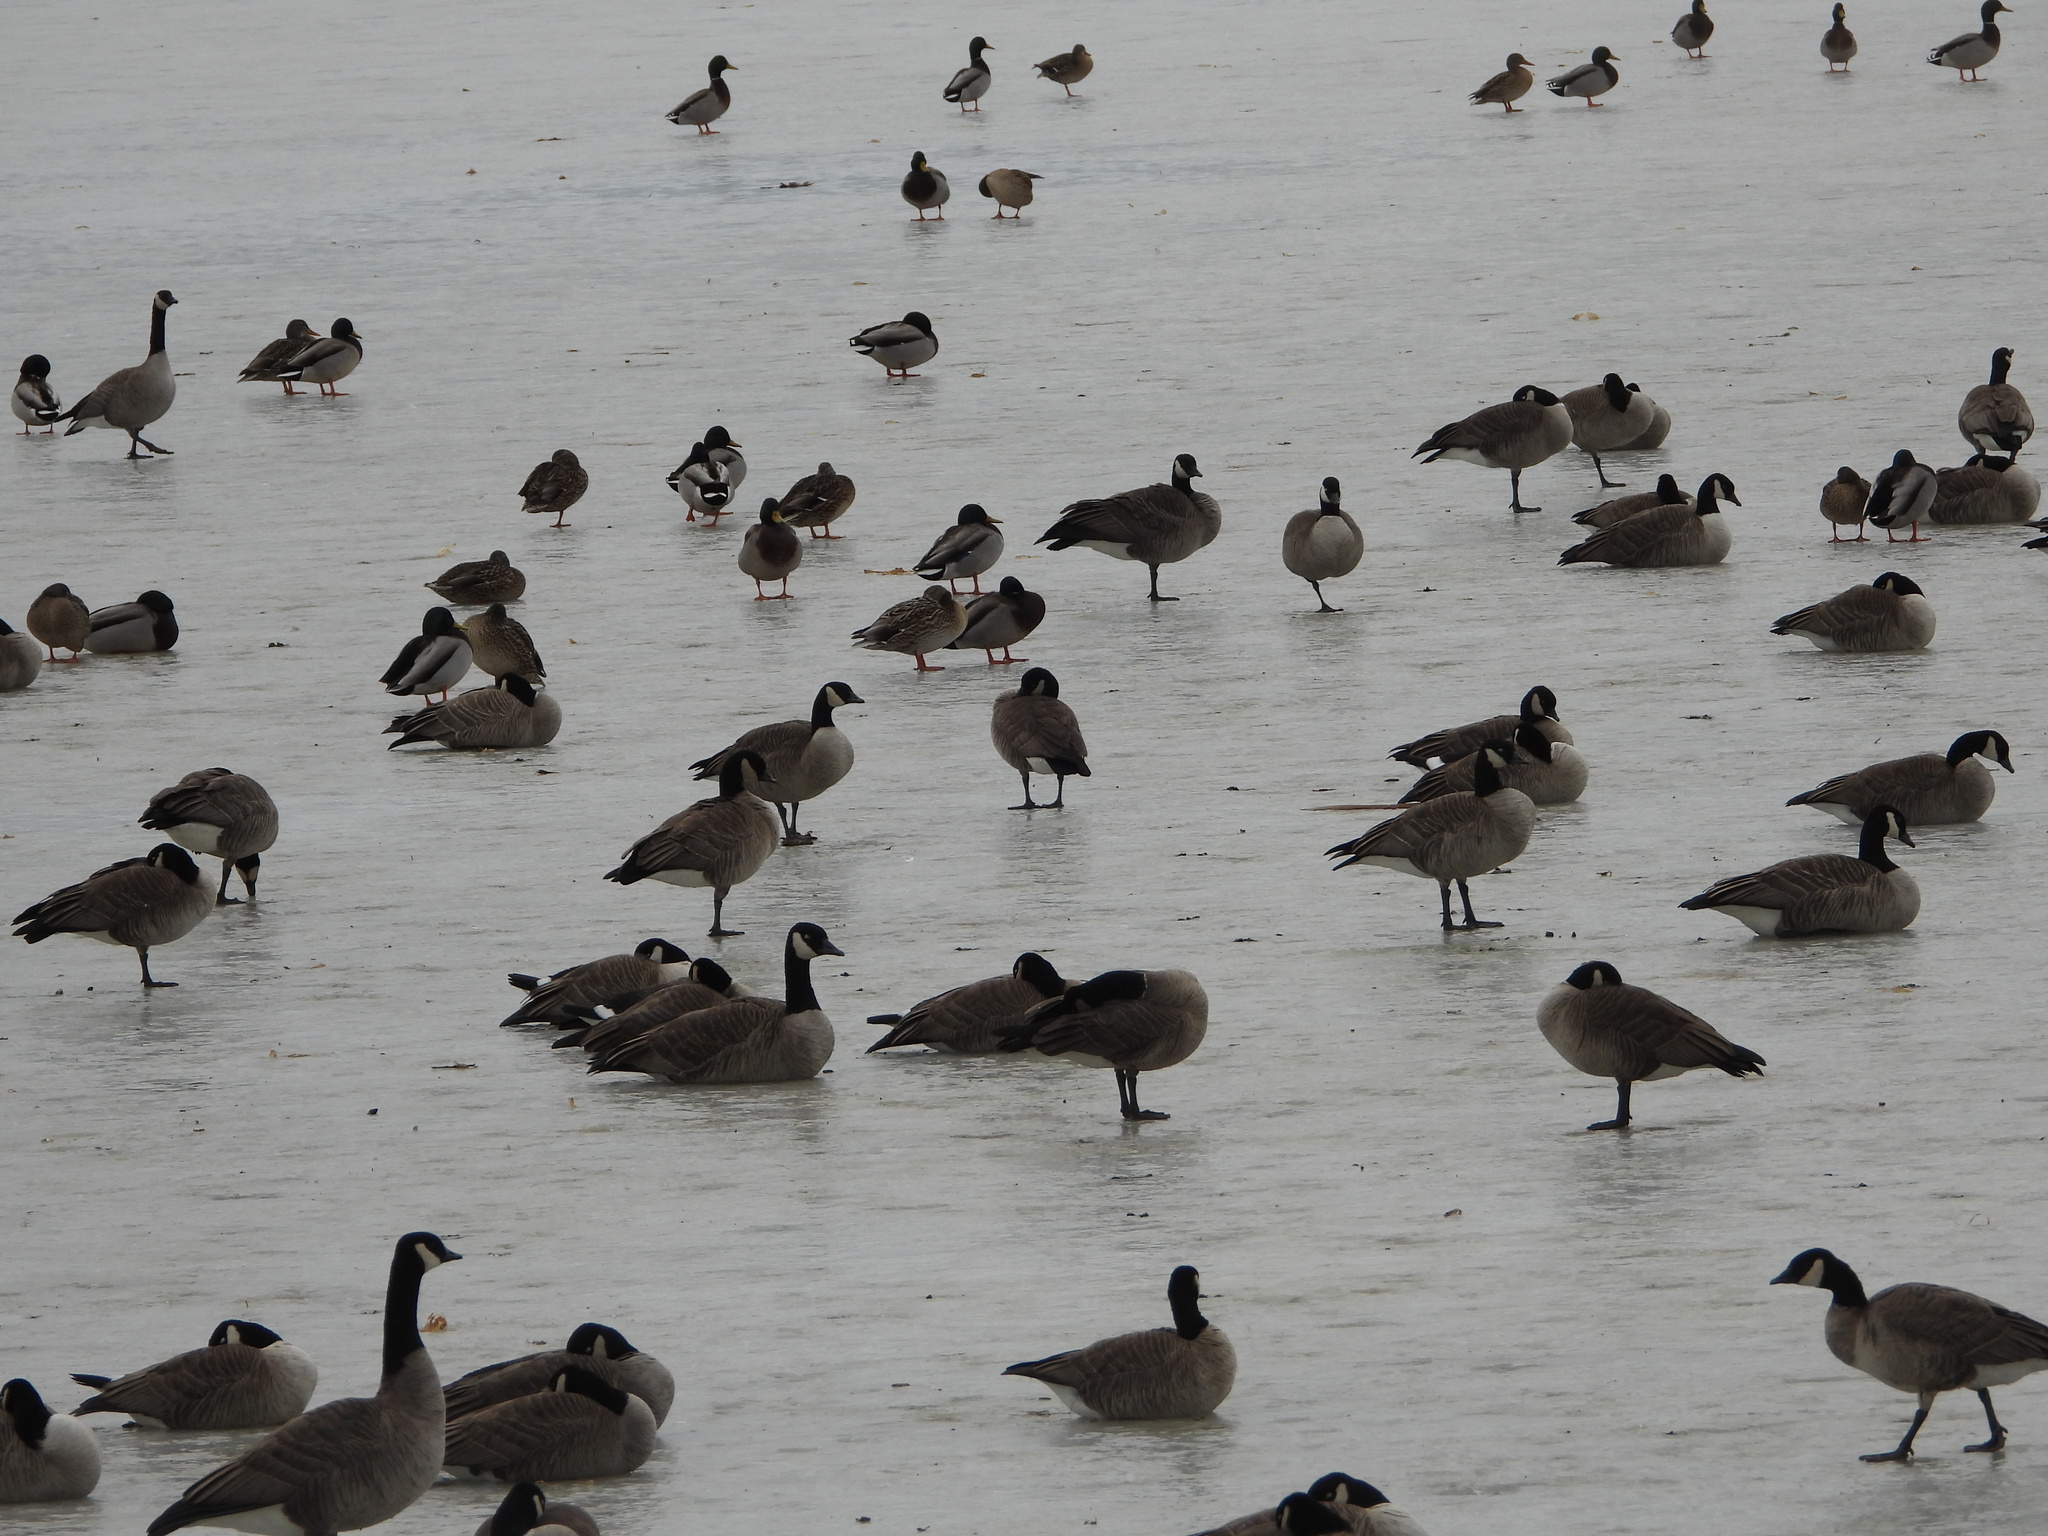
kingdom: Animalia
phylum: Chordata
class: Aves
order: Anseriformes
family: Anatidae
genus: Branta
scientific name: Branta hutchinsii
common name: Cackling goose
